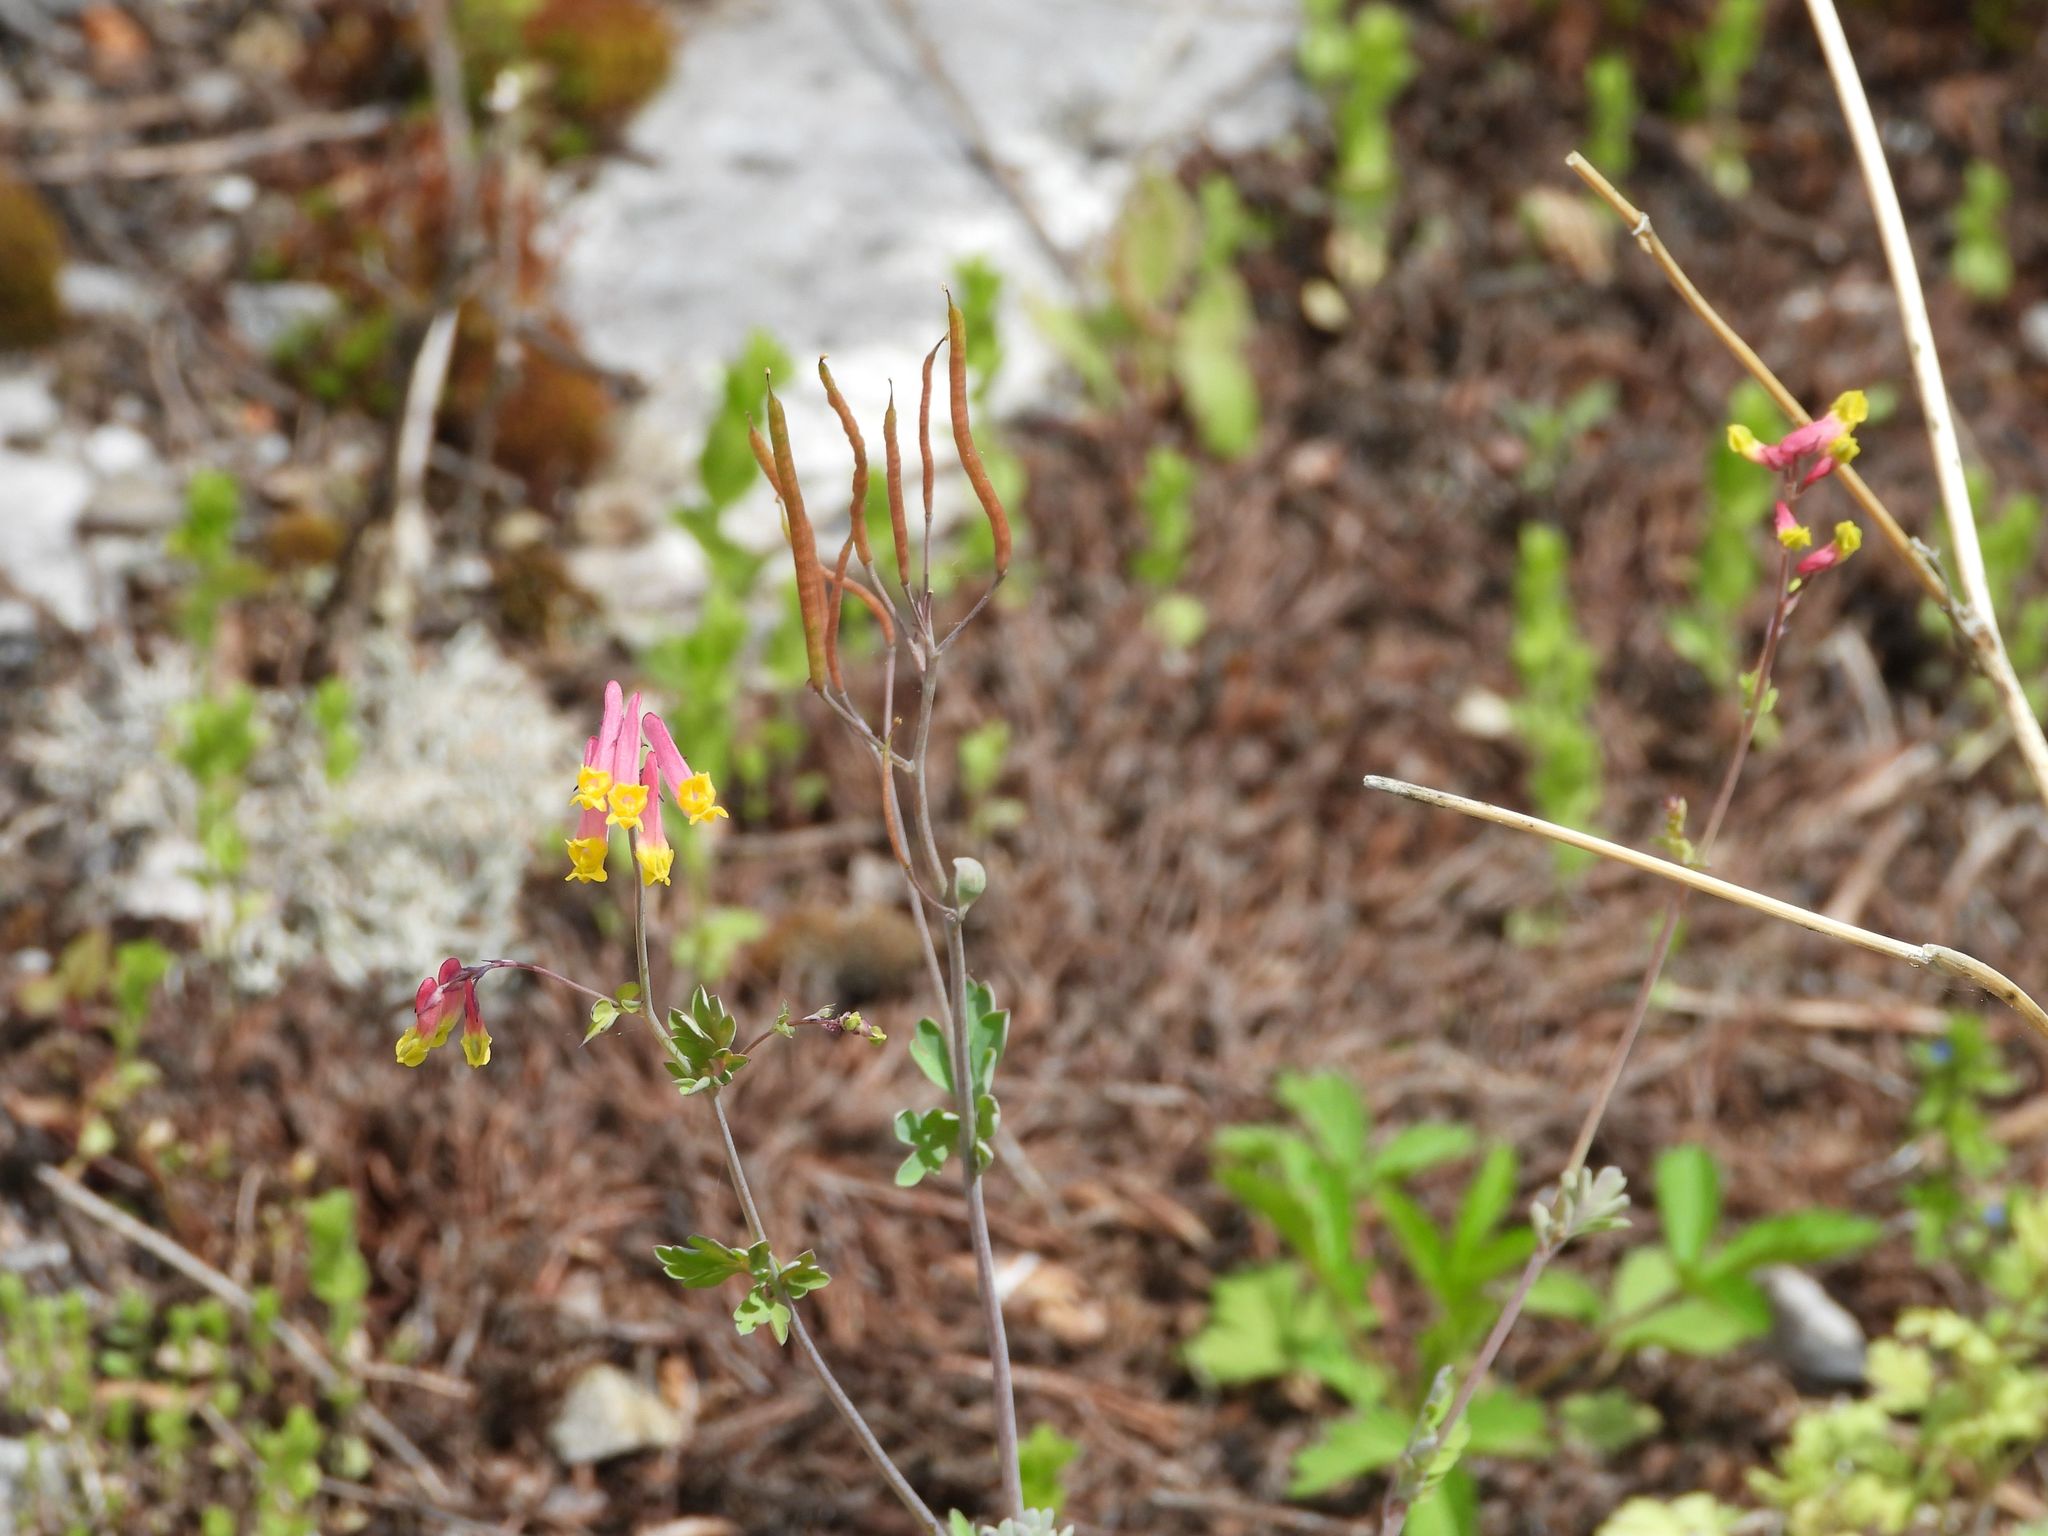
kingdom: Plantae
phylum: Tracheophyta
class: Magnoliopsida
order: Ranunculales
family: Papaveraceae
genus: Capnoides
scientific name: Capnoides sempervirens
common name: Rock harlequin
